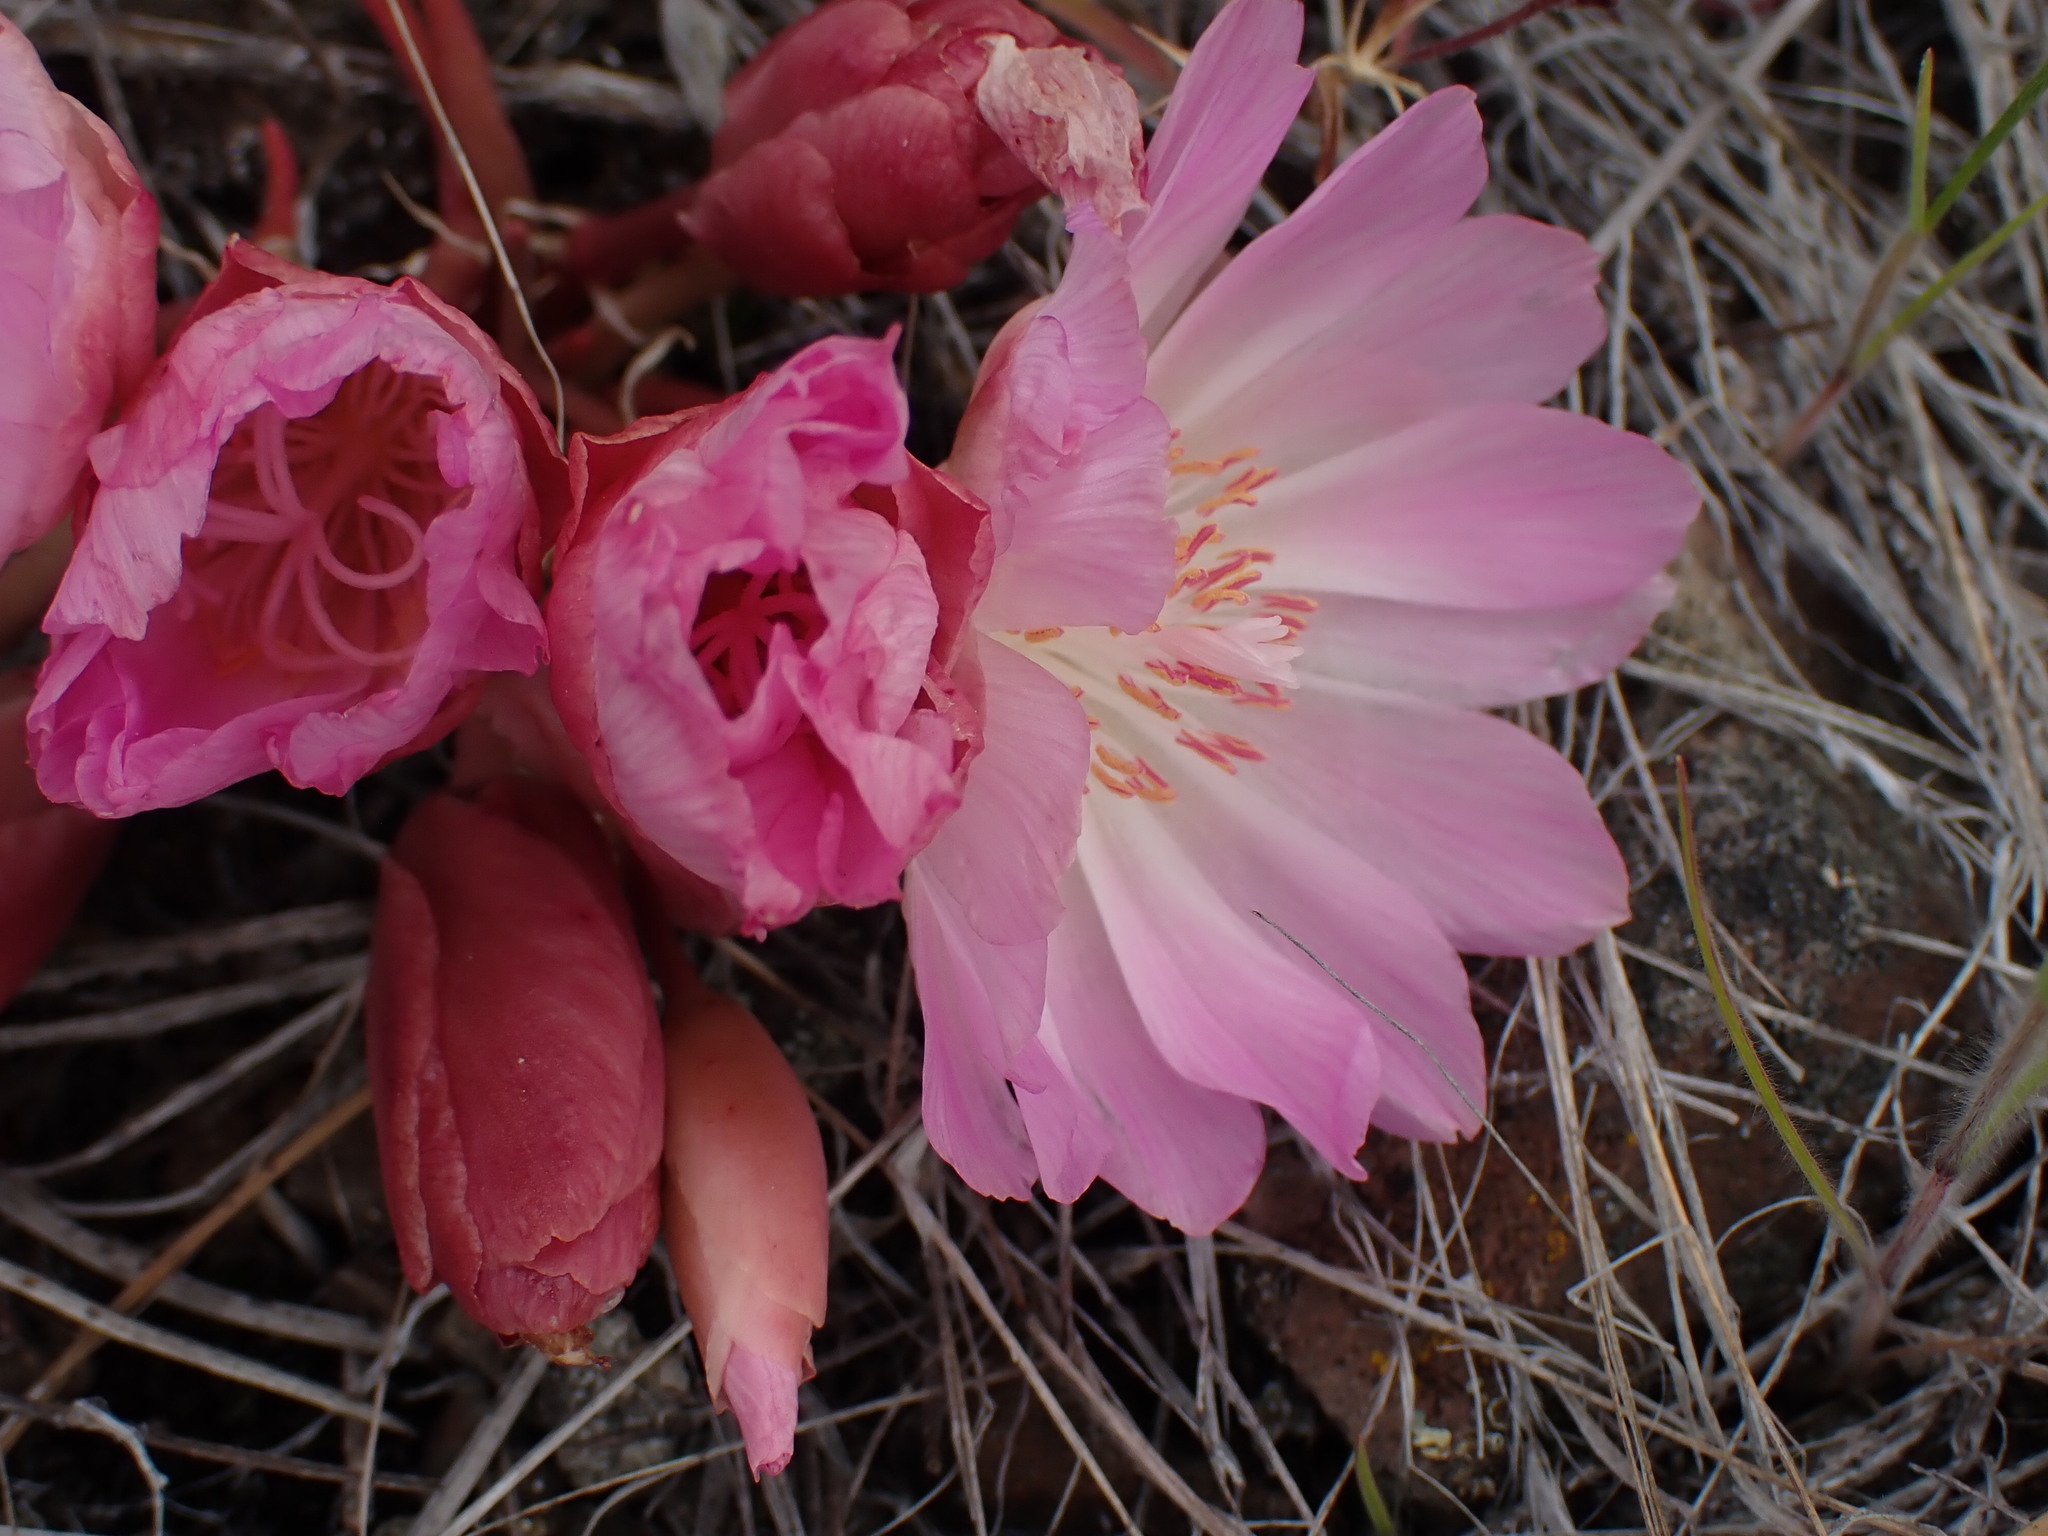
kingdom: Plantae
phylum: Tracheophyta
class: Magnoliopsida
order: Caryophyllales
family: Montiaceae
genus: Lewisia
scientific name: Lewisia rediviva
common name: Bitter-root
